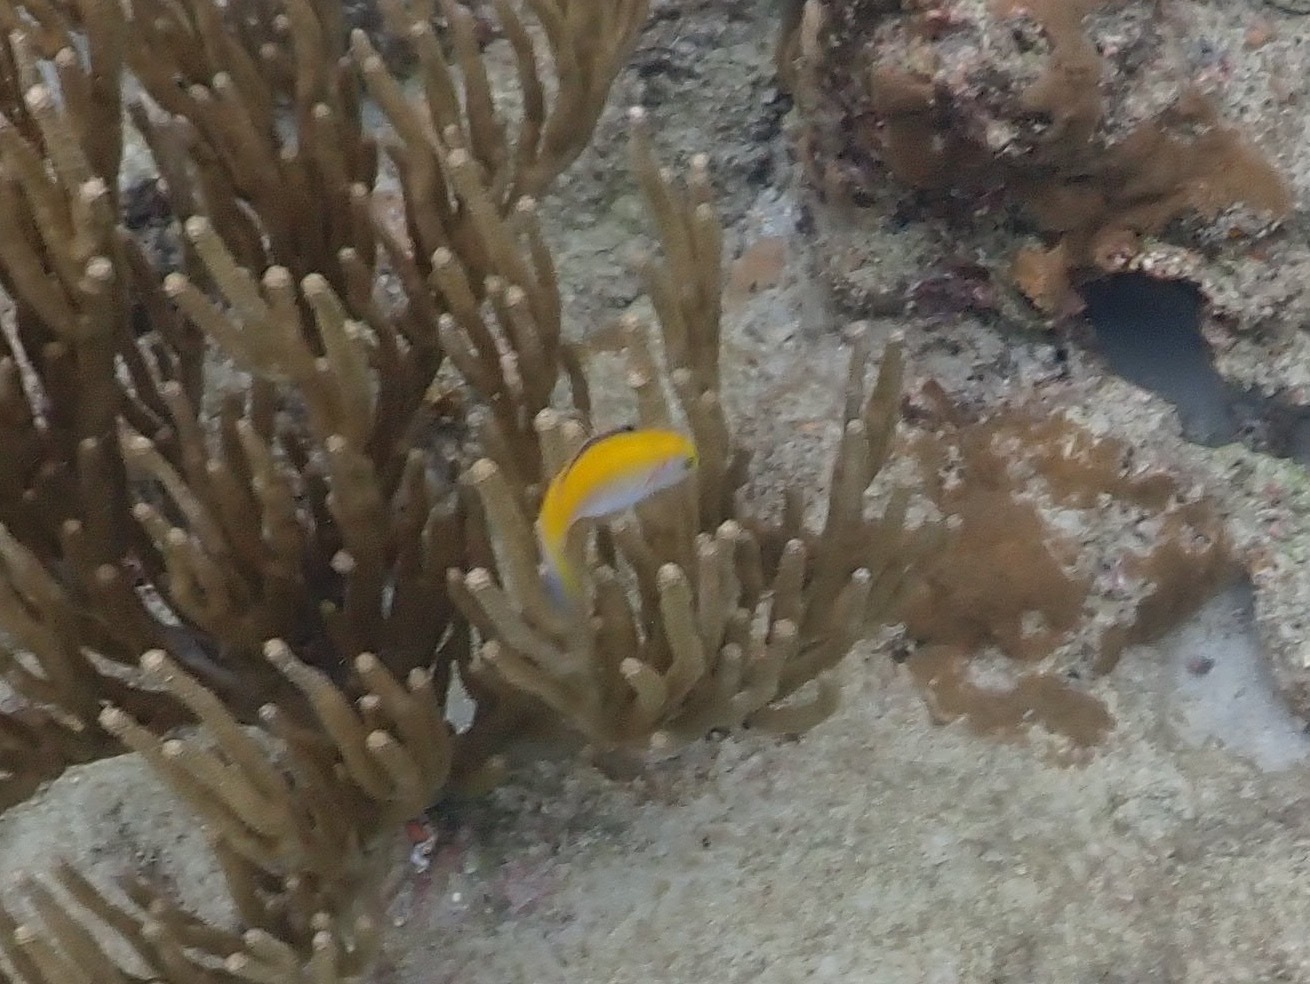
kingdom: Animalia
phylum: Chordata
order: Perciformes
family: Labridae
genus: Thalassoma
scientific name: Thalassoma bifasciatum
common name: Bluehead wrasse
